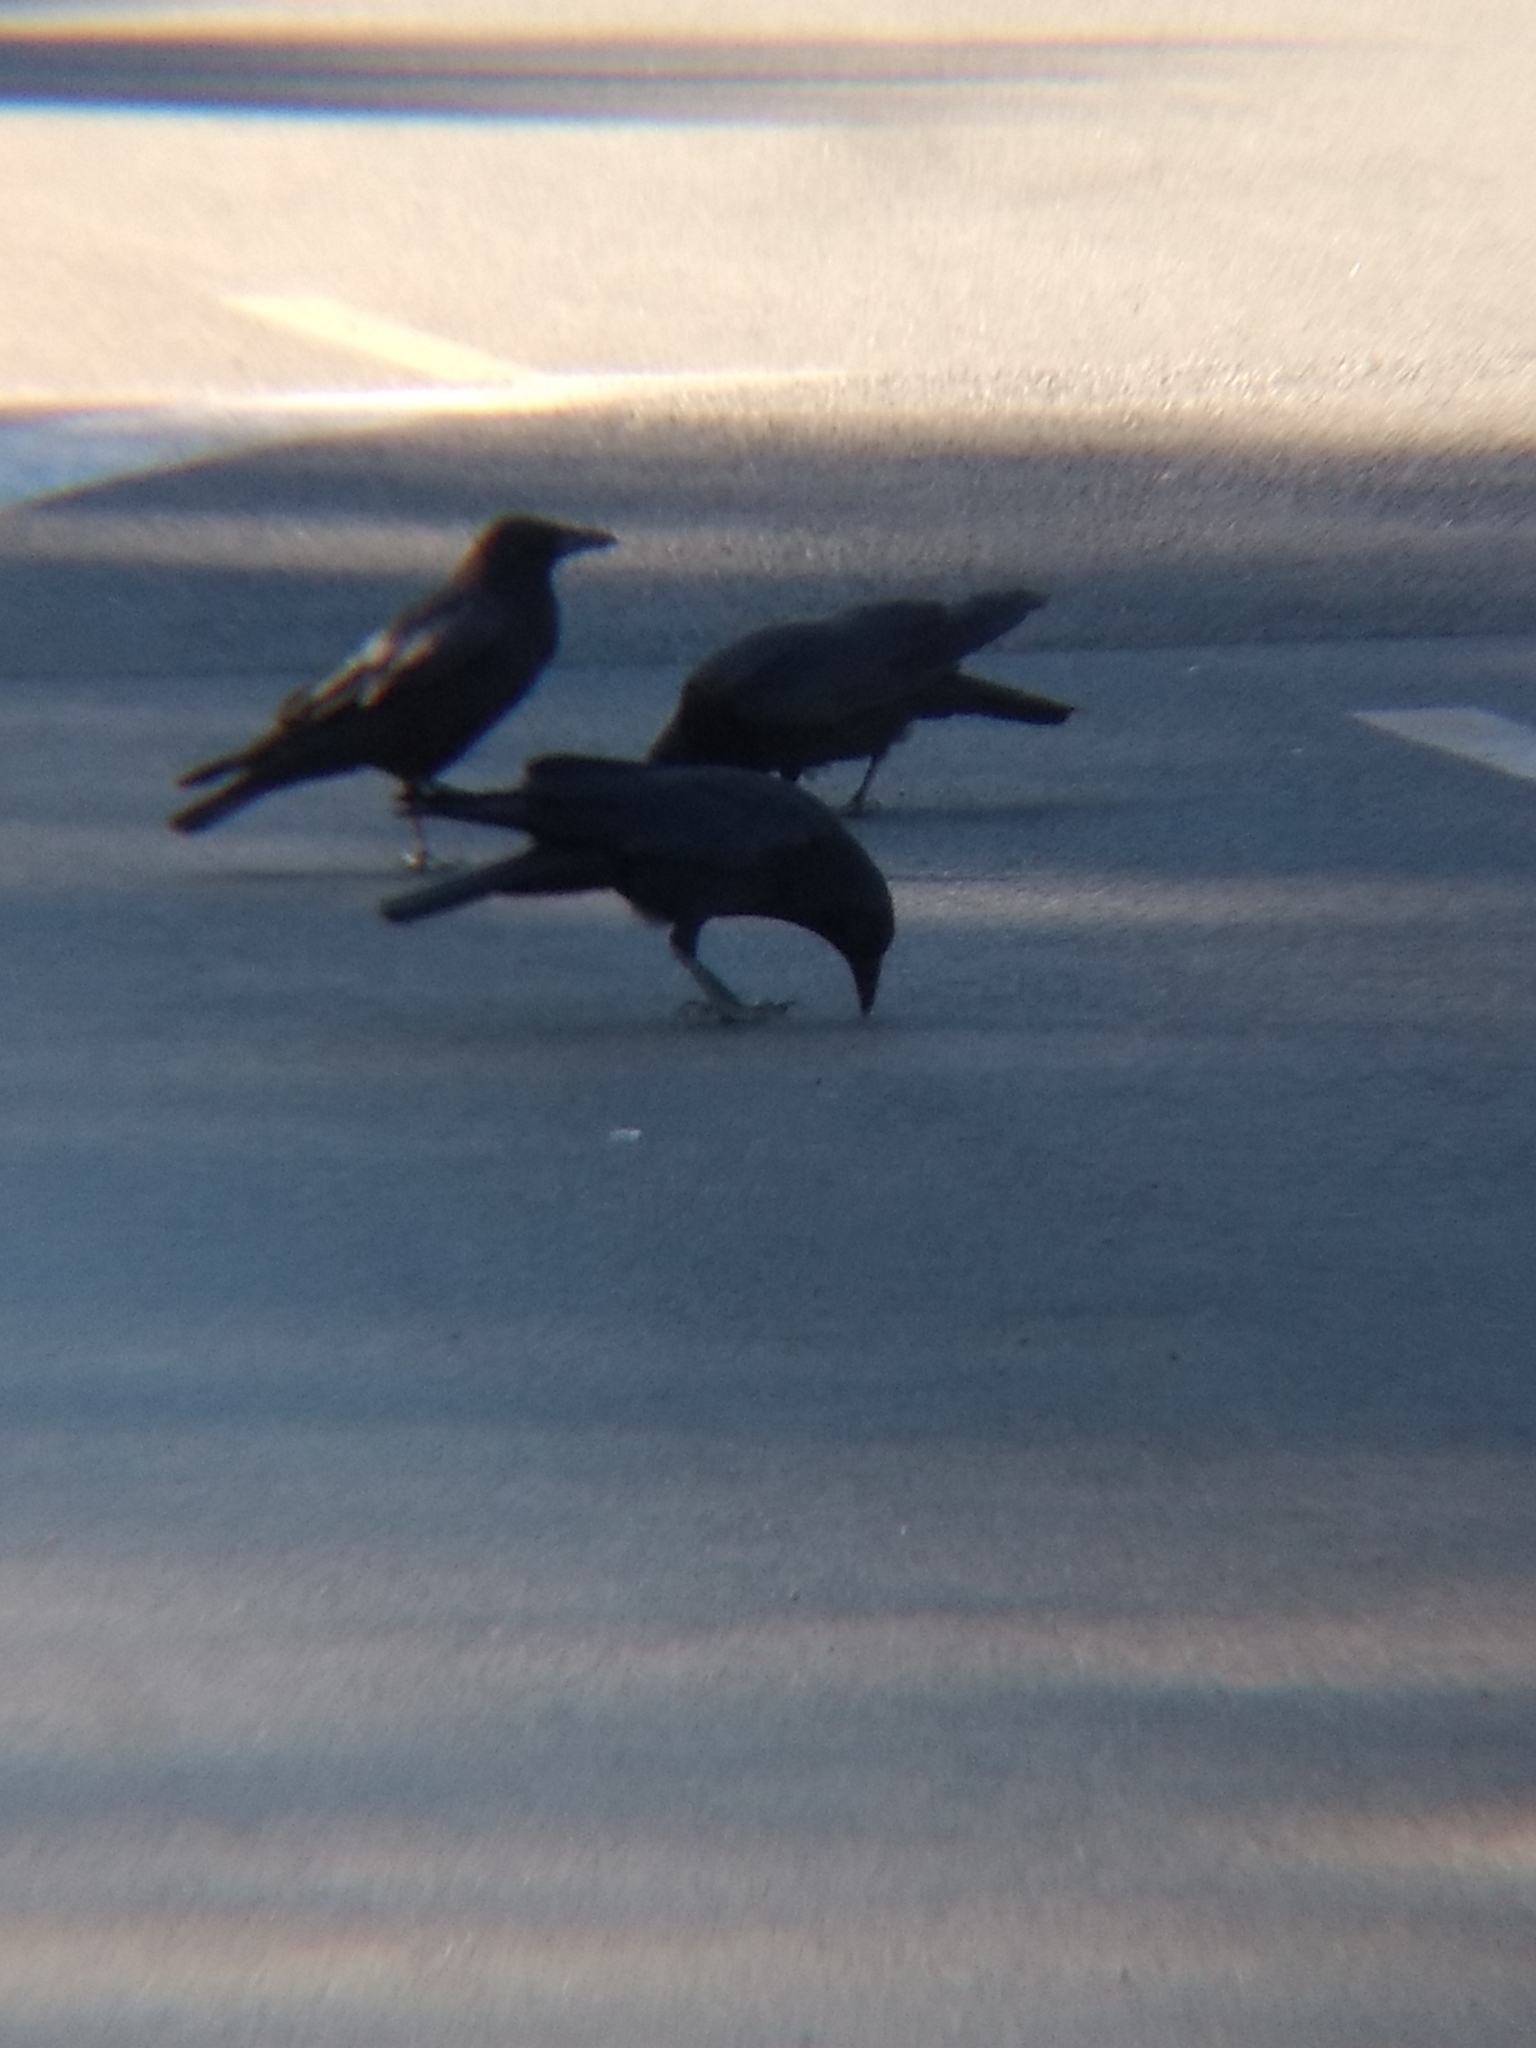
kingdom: Animalia
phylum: Chordata
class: Aves
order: Passeriformes
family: Corvidae
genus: Corvus
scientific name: Corvus brachyrhynchos
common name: American crow
